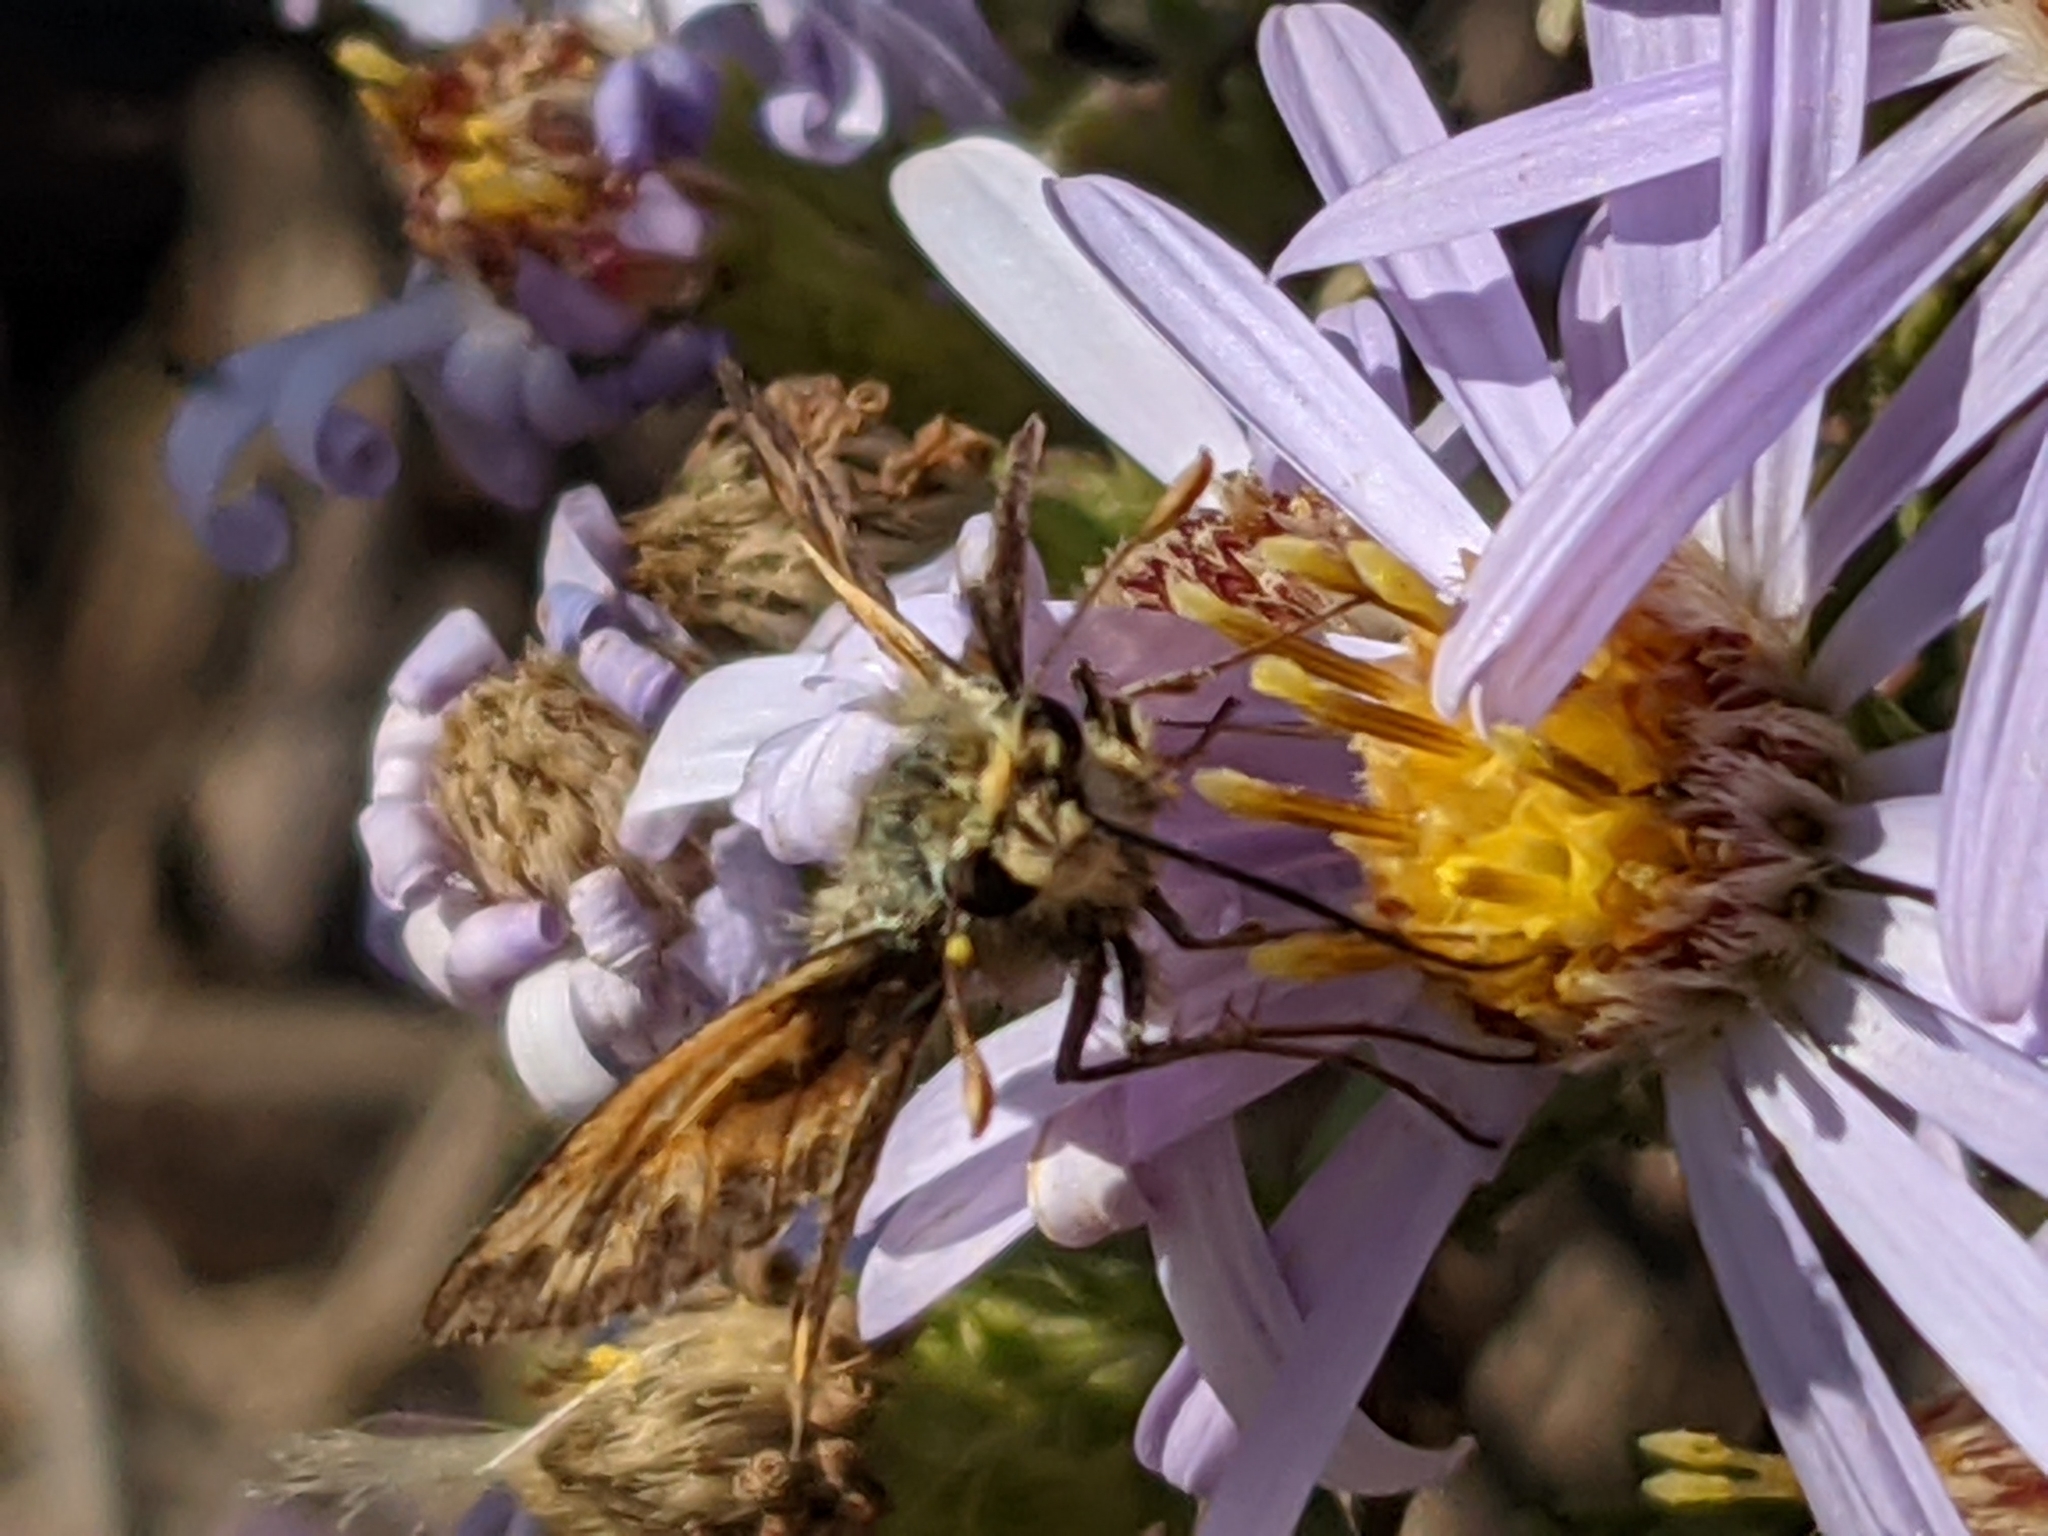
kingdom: Animalia
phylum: Arthropoda
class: Insecta
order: Lepidoptera
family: Hesperiidae
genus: Polites
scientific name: Polites sabuleti
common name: Sandhill skipper
